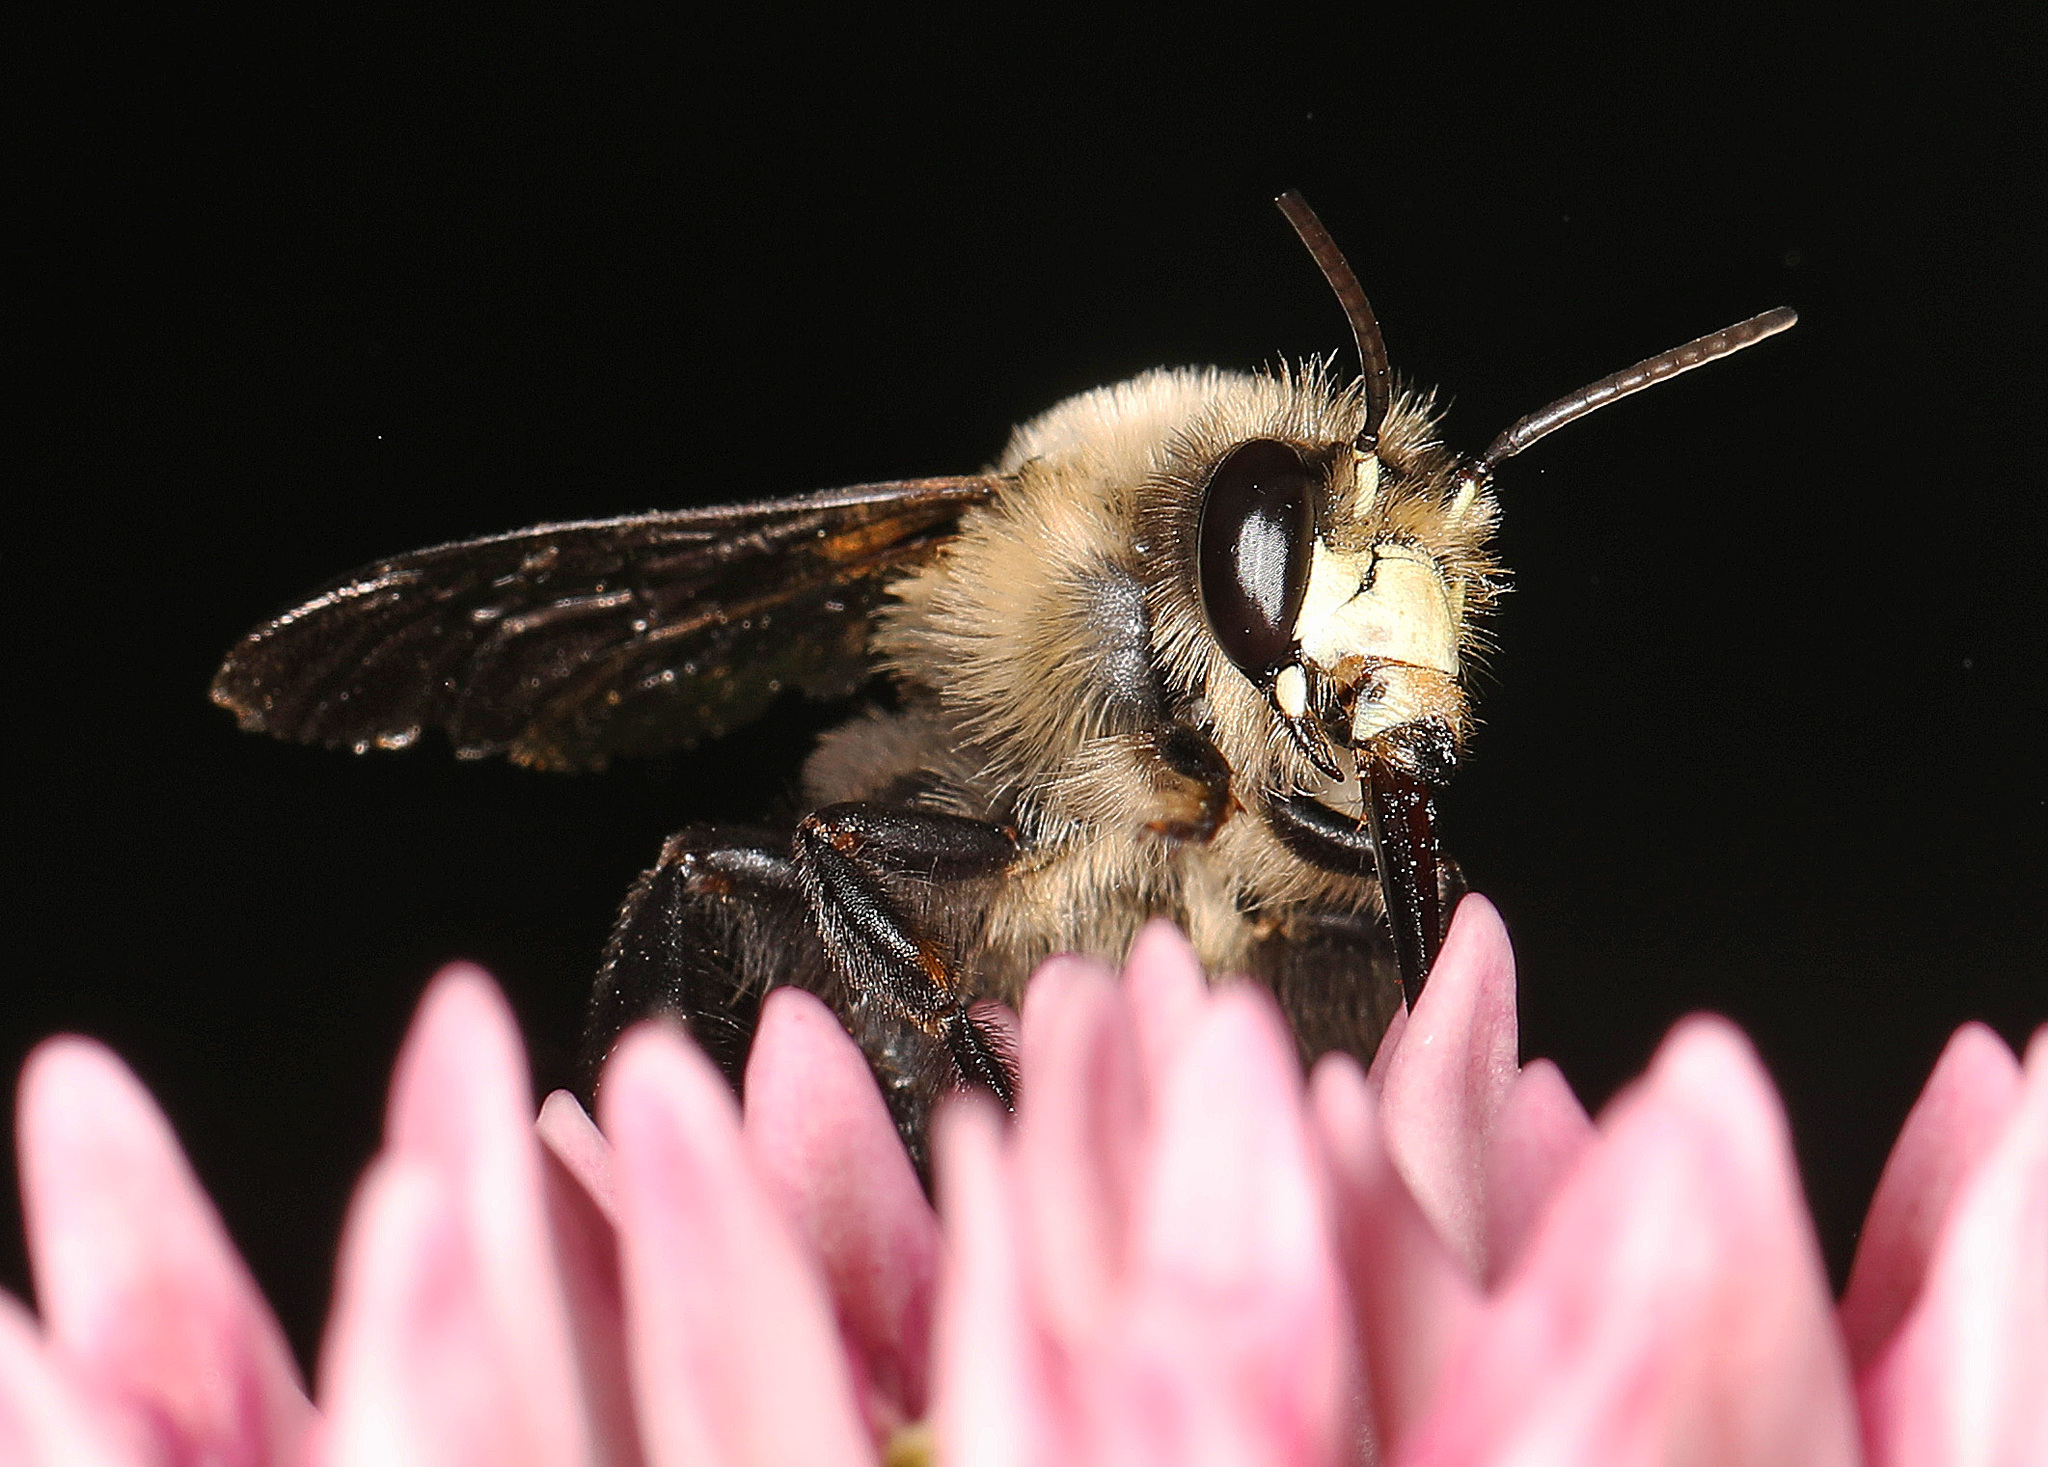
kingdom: Animalia
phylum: Arthropoda
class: Insecta
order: Hymenoptera
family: Apidae
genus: Anthophora
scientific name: Anthophora abrupta
